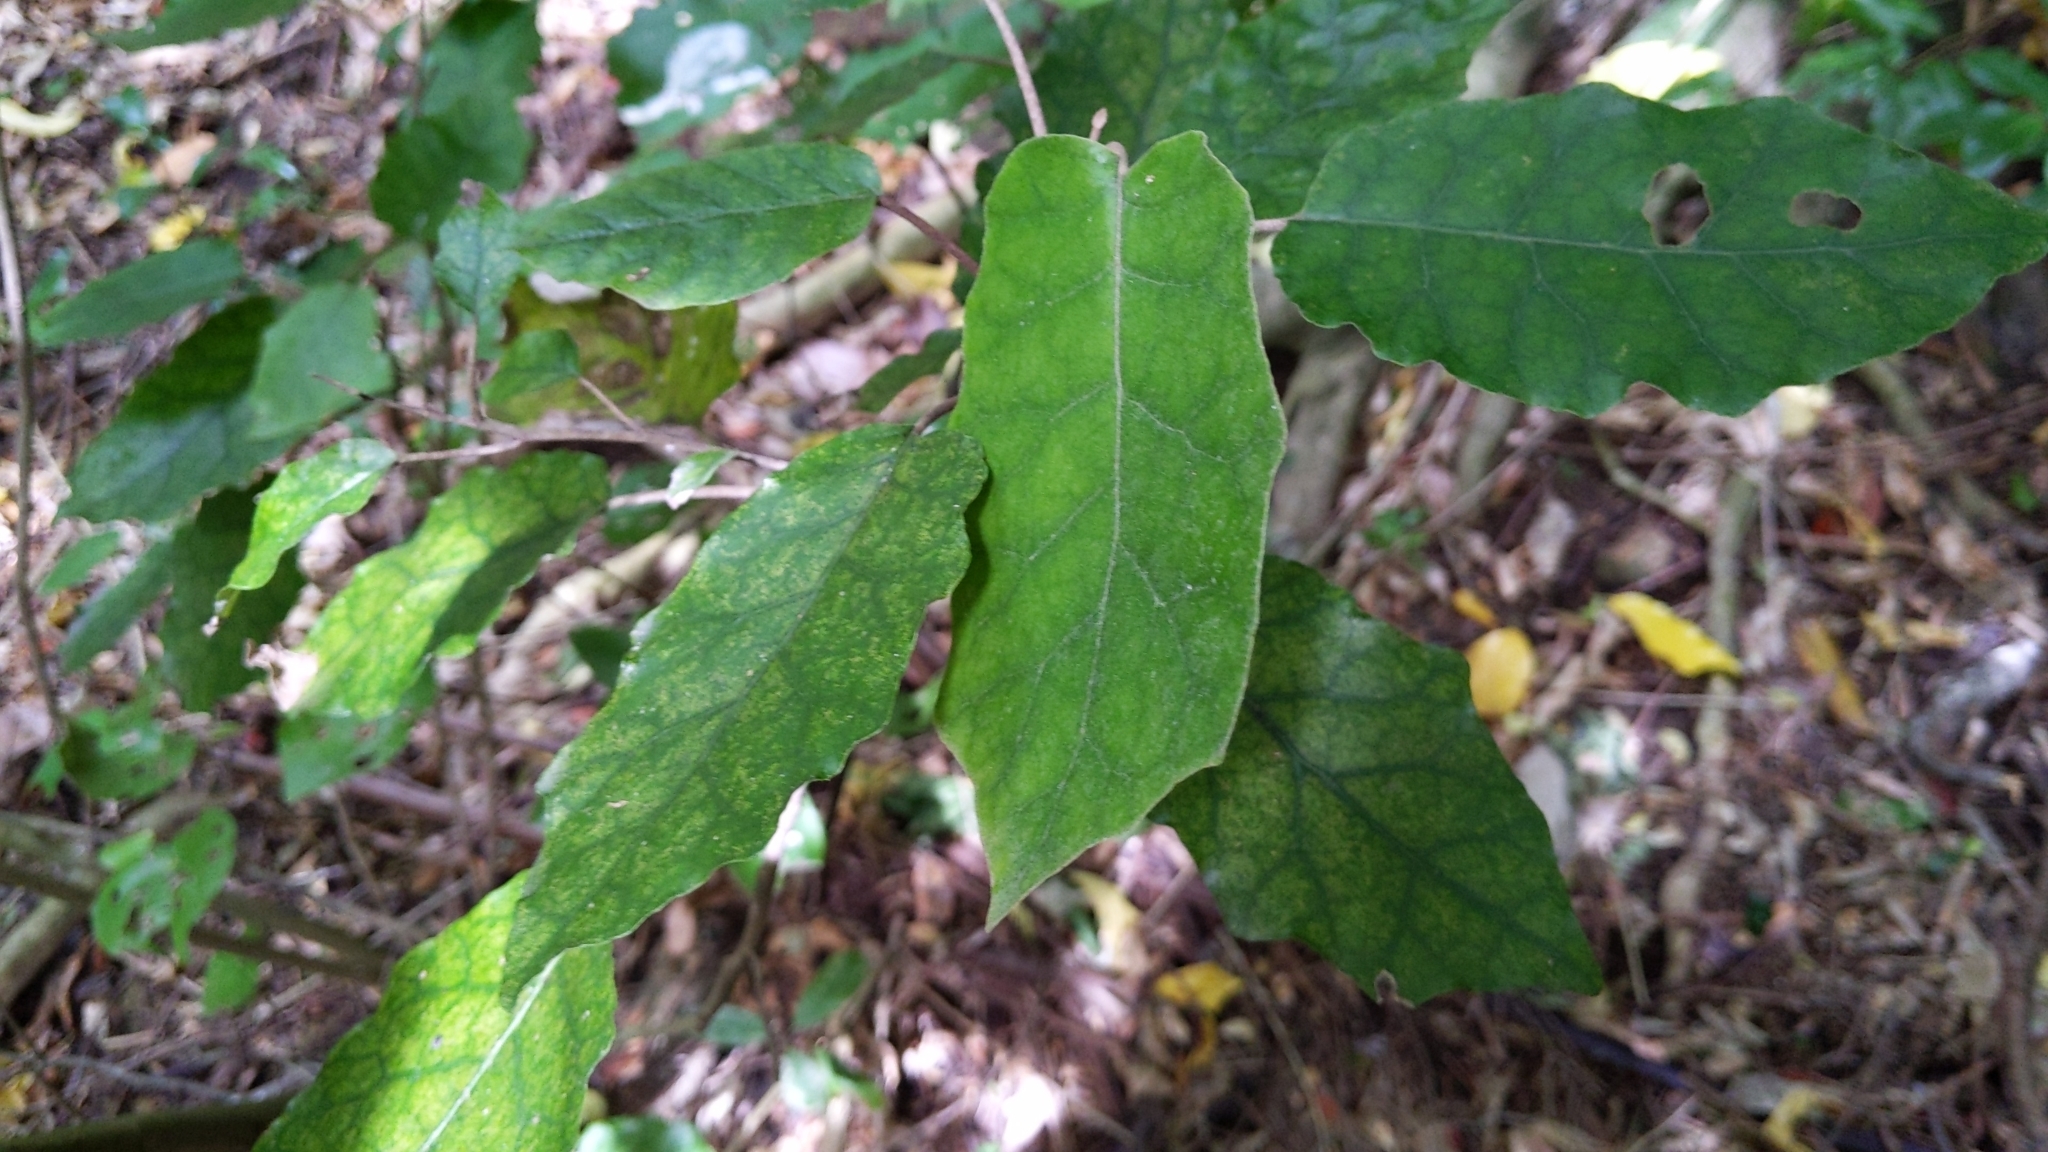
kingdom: Plantae
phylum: Tracheophyta
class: Magnoliopsida
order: Asterales
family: Asteraceae
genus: Brachyglottis
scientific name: Brachyglottis repanda
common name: Hedge ragwort
